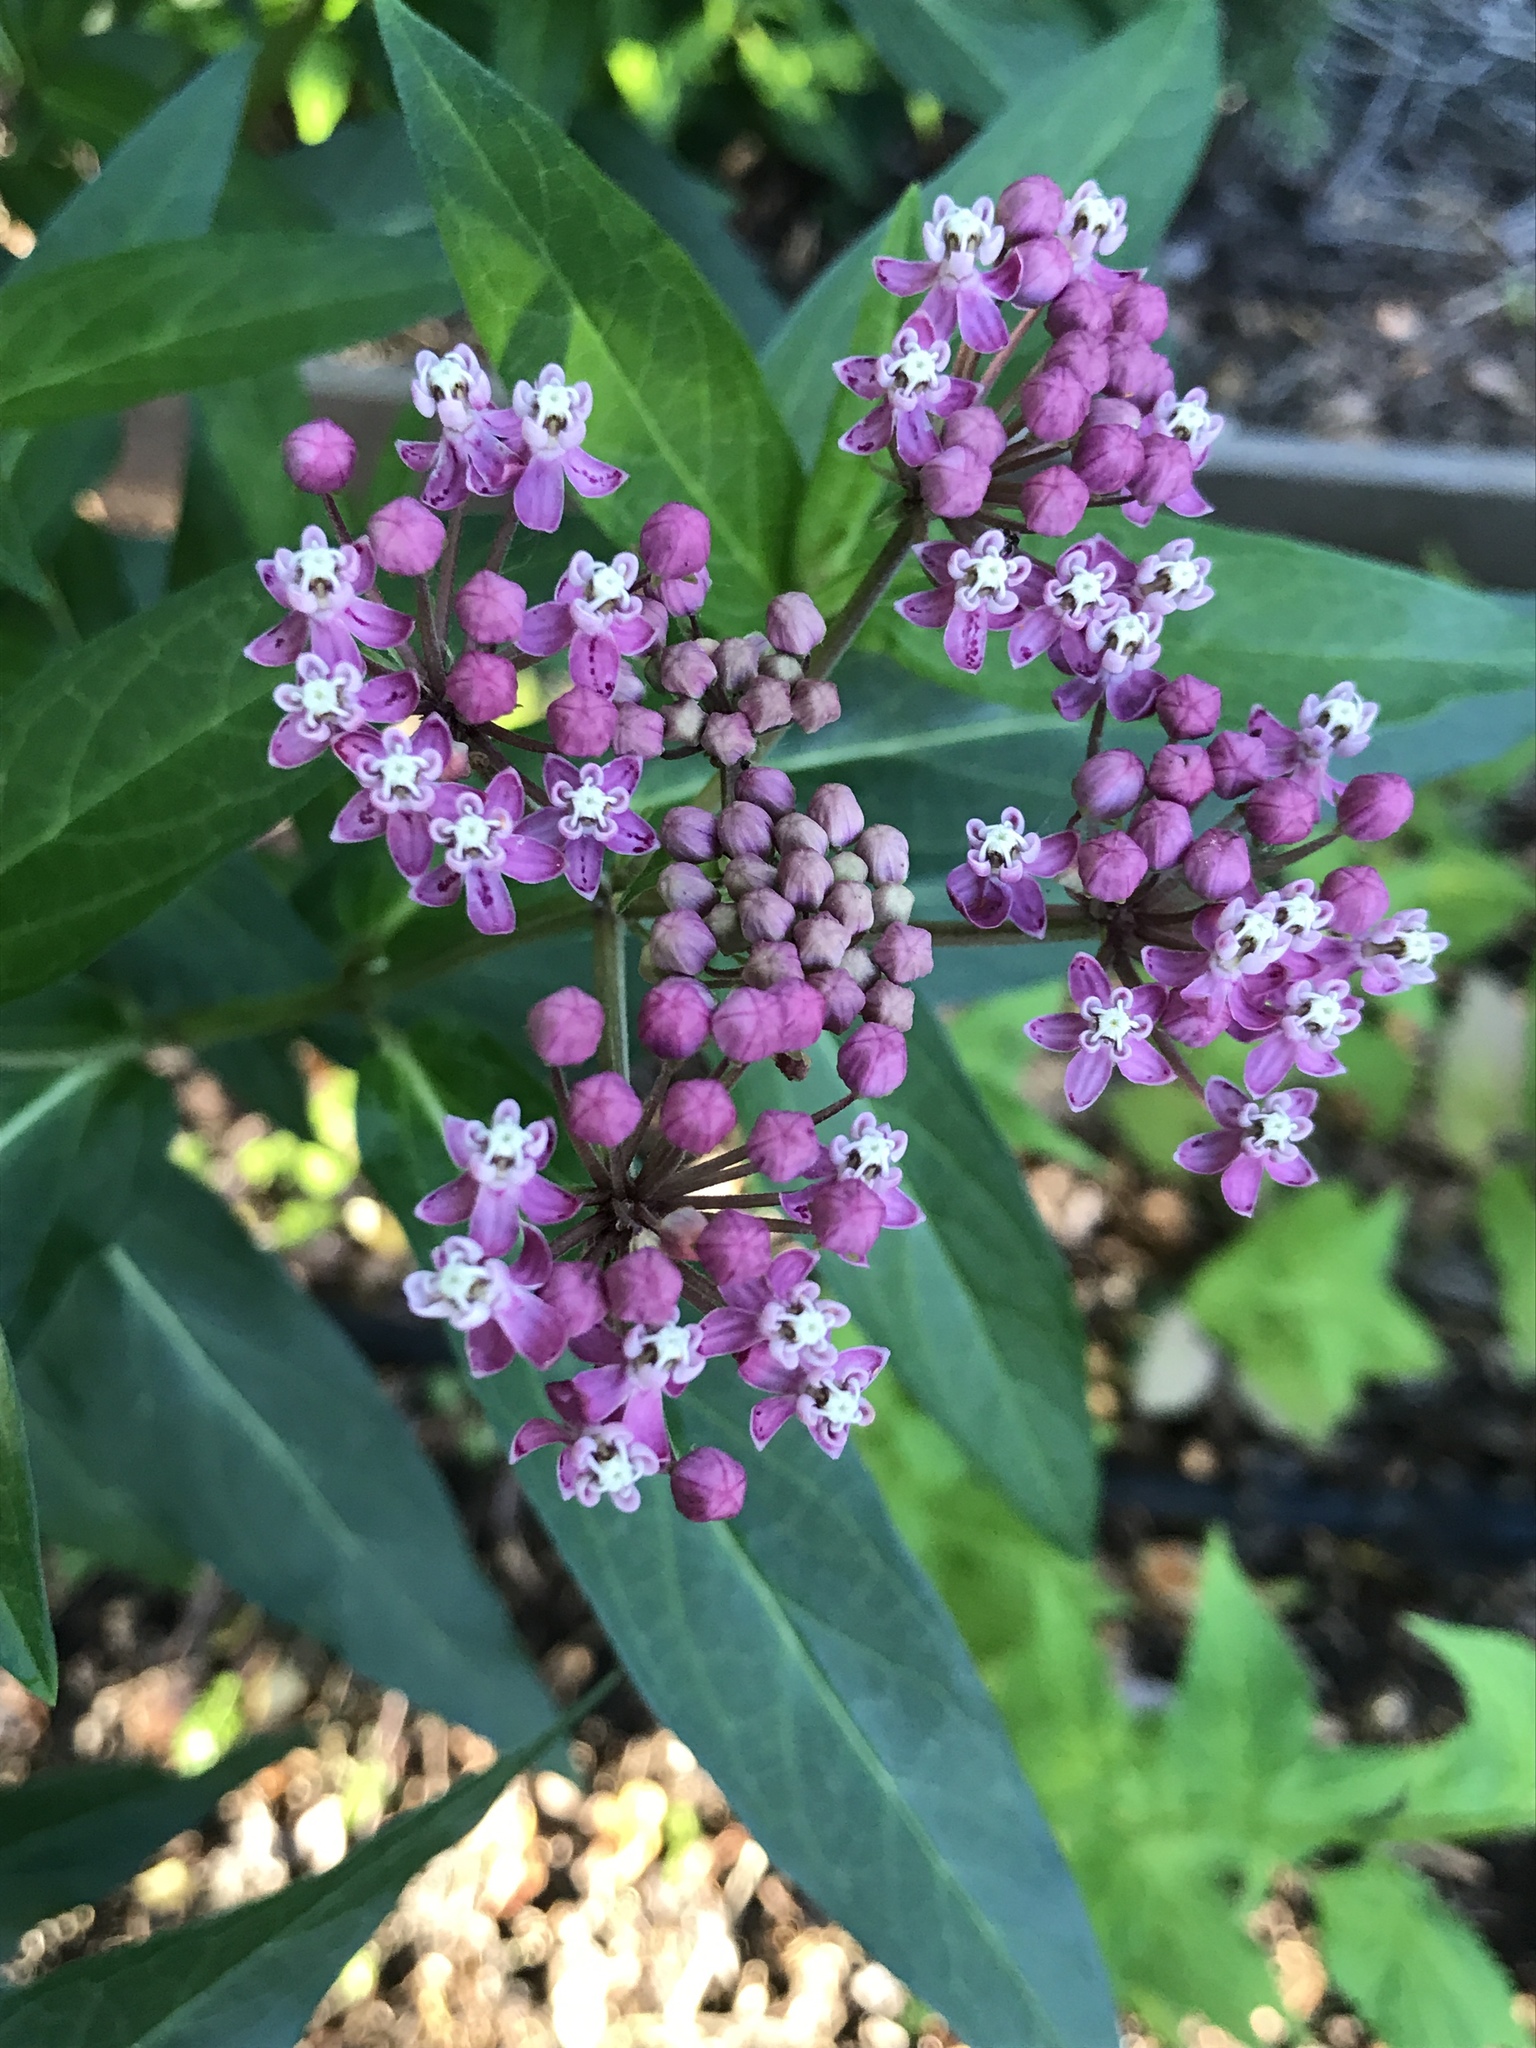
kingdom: Plantae
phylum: Tracheophyta
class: Magnoliopsida
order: Gentianales
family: Apocynaceae
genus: Asclepias
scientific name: Asclepias incarnata
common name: Swamp milkweed
